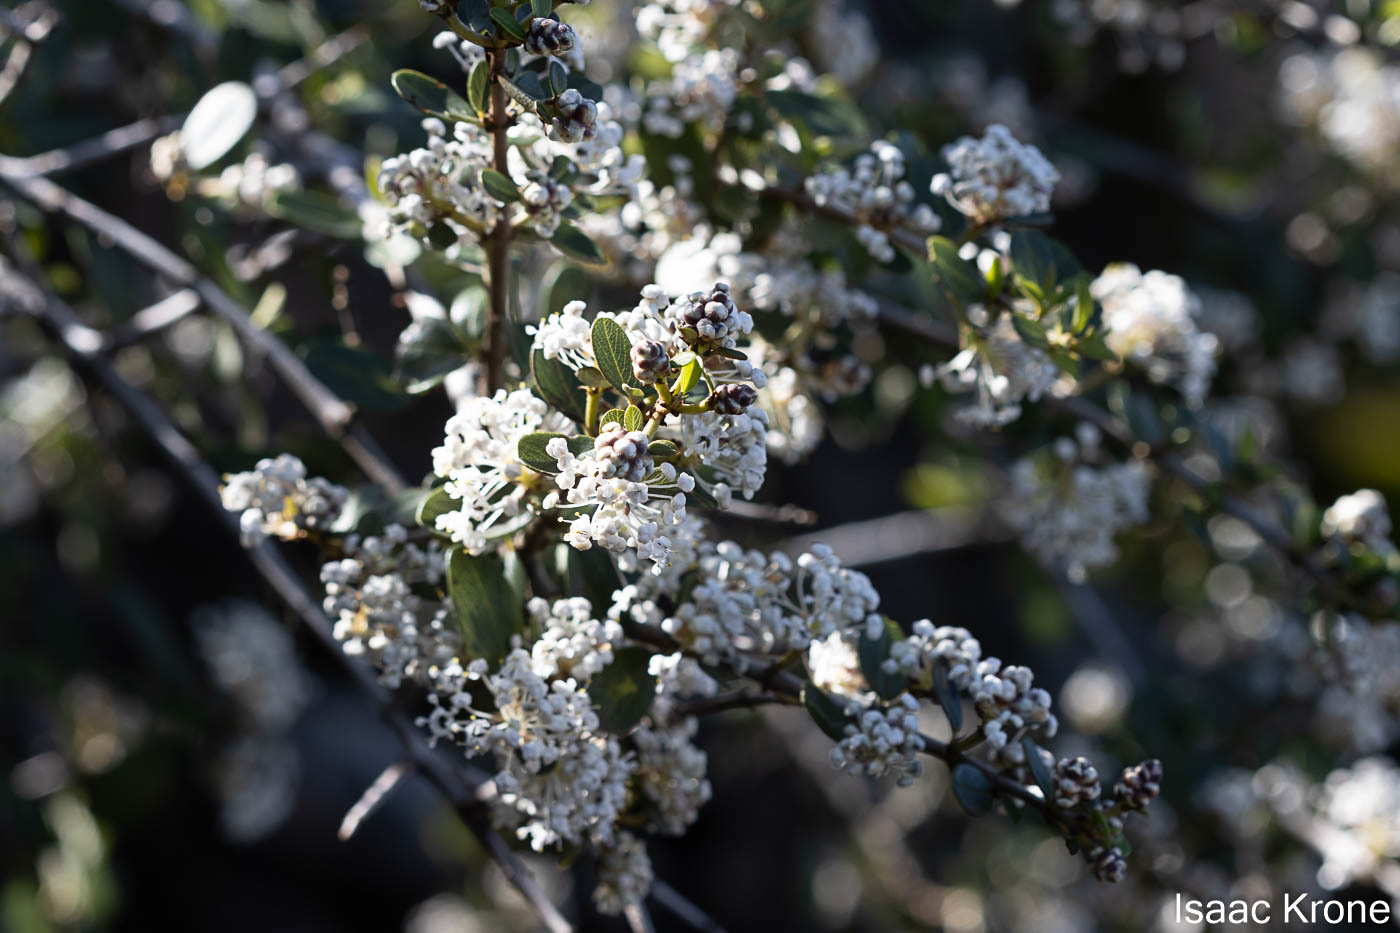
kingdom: Plantae
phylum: Tracheophyta
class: Magnoliopsida
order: Rosales
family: Rhamnaceae
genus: Ceanothus
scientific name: Ceanothus cuneatus
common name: Cuneate ceanothus
